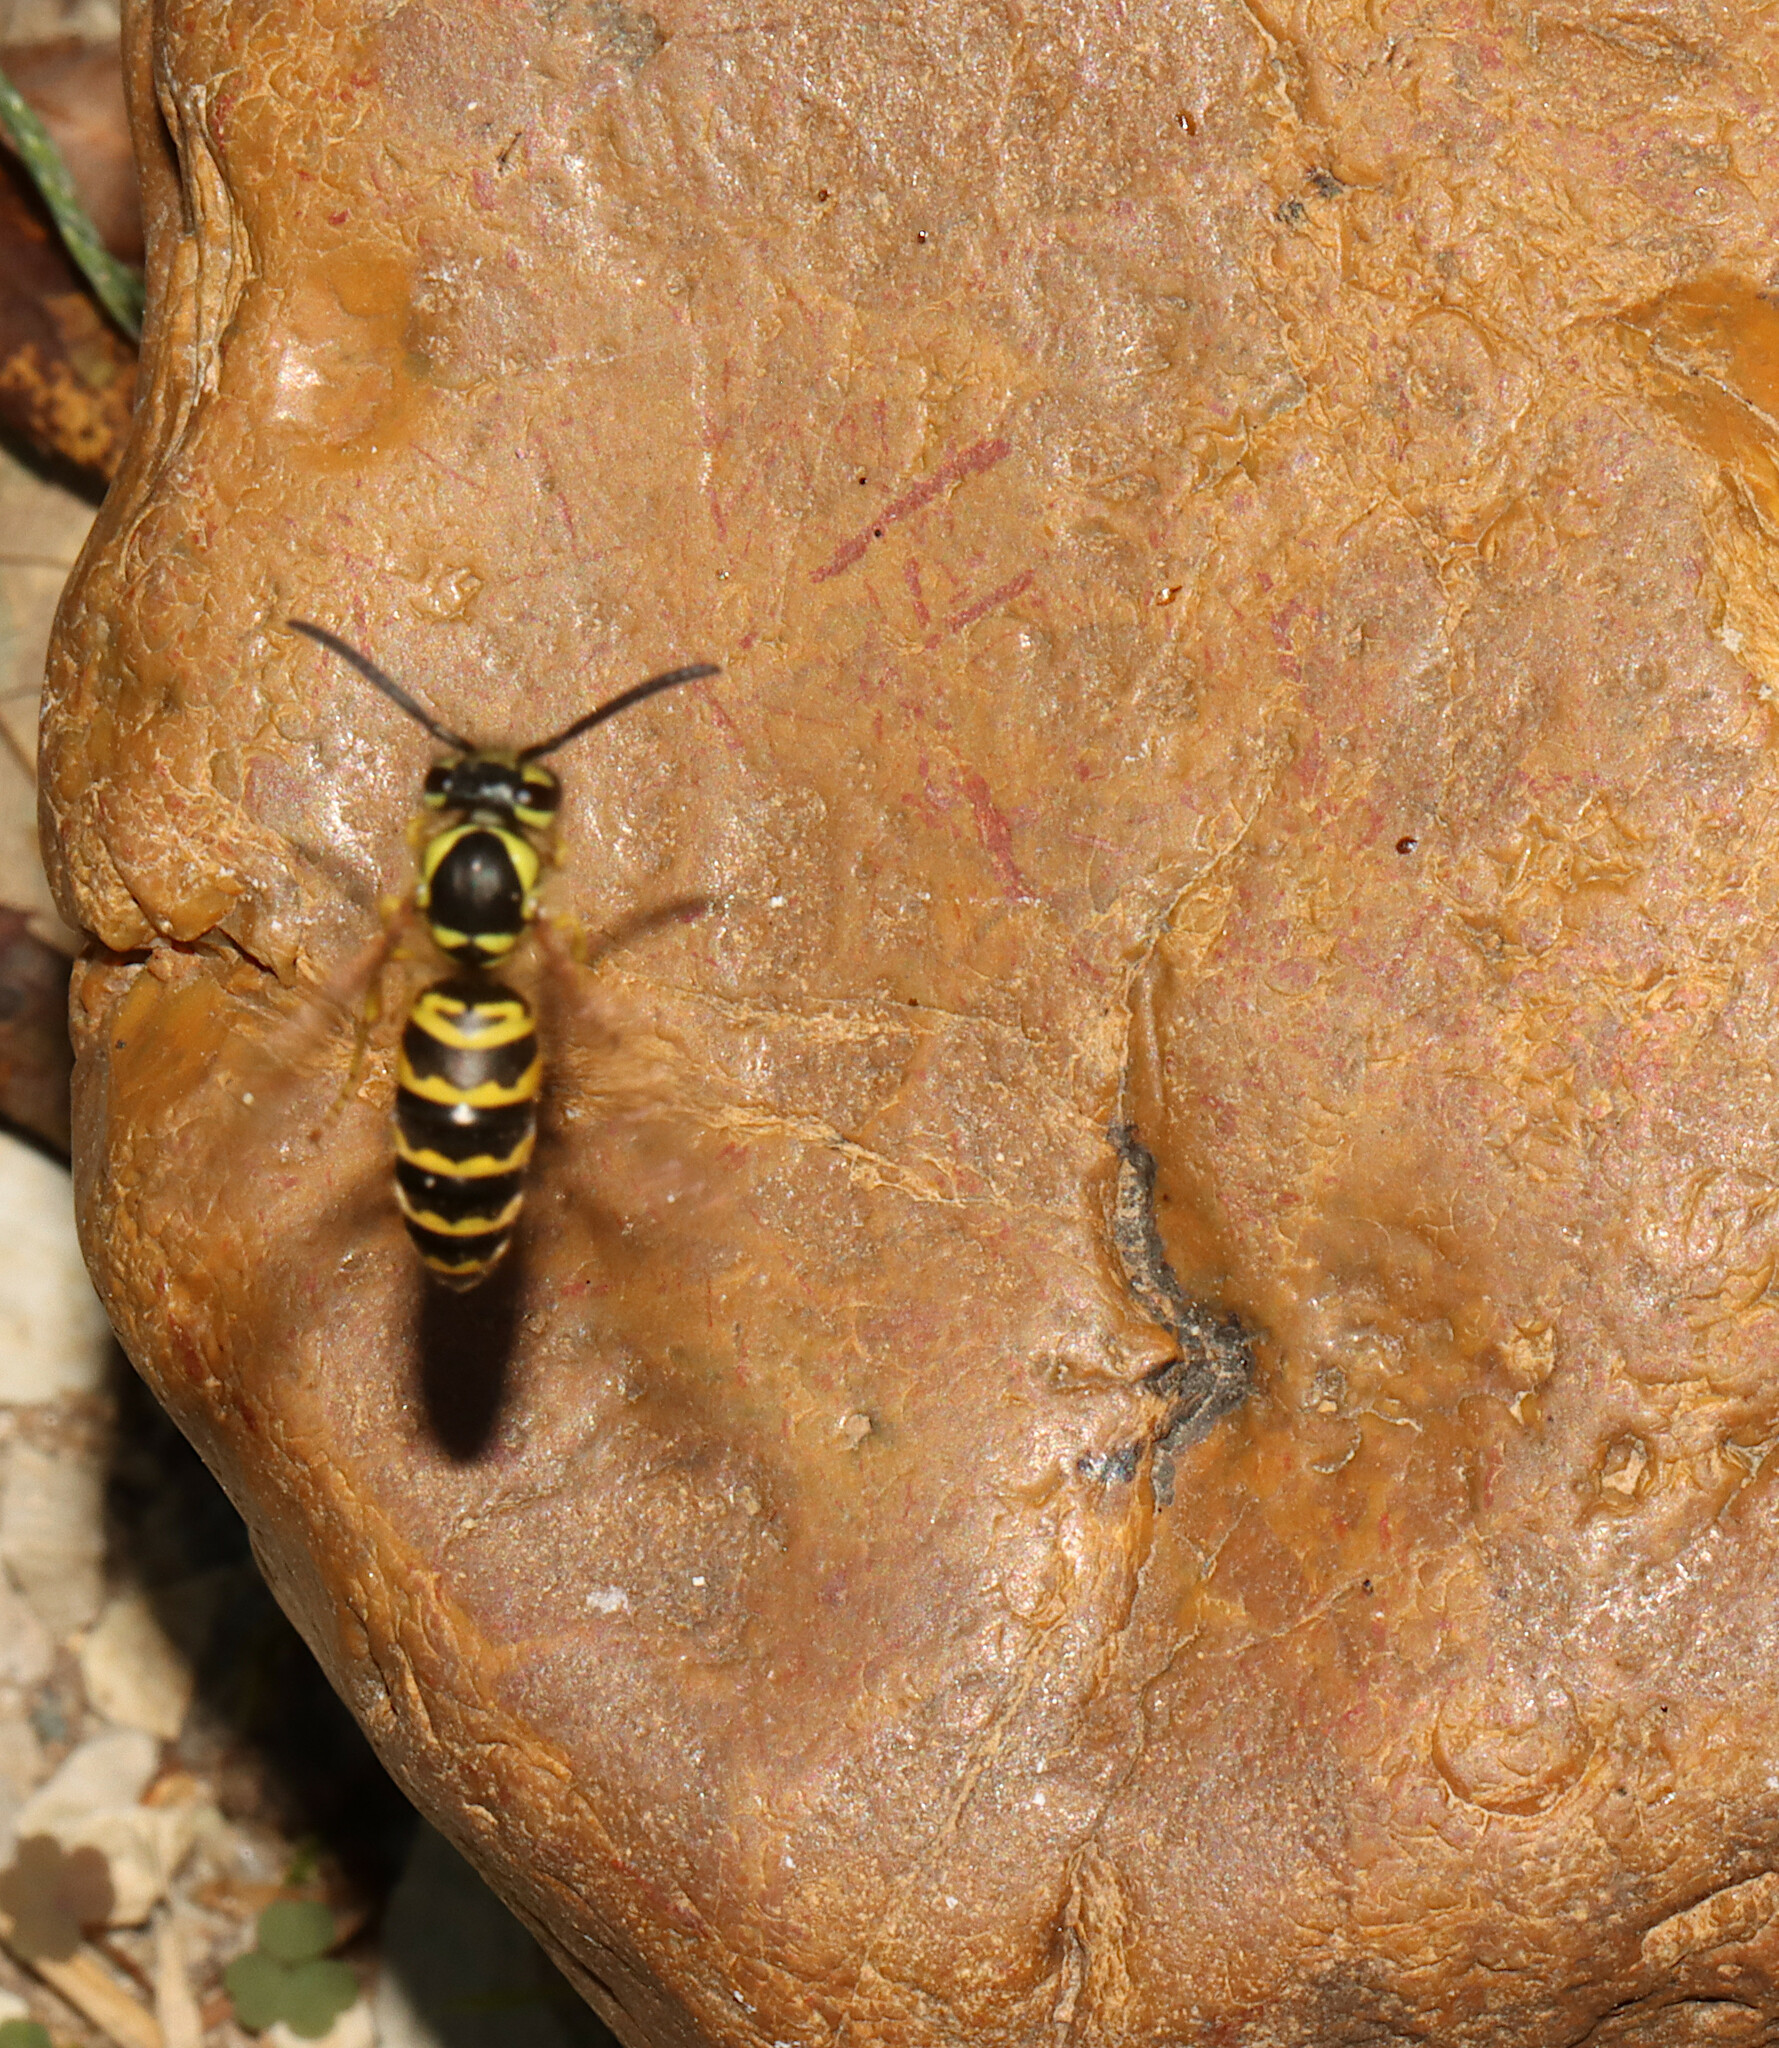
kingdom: Animalia
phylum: Arthropoda
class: Insecta
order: Hymenoptera
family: Vespidae
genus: Vespula
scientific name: Vespula maculifrons
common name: Eastern yellowjacket
